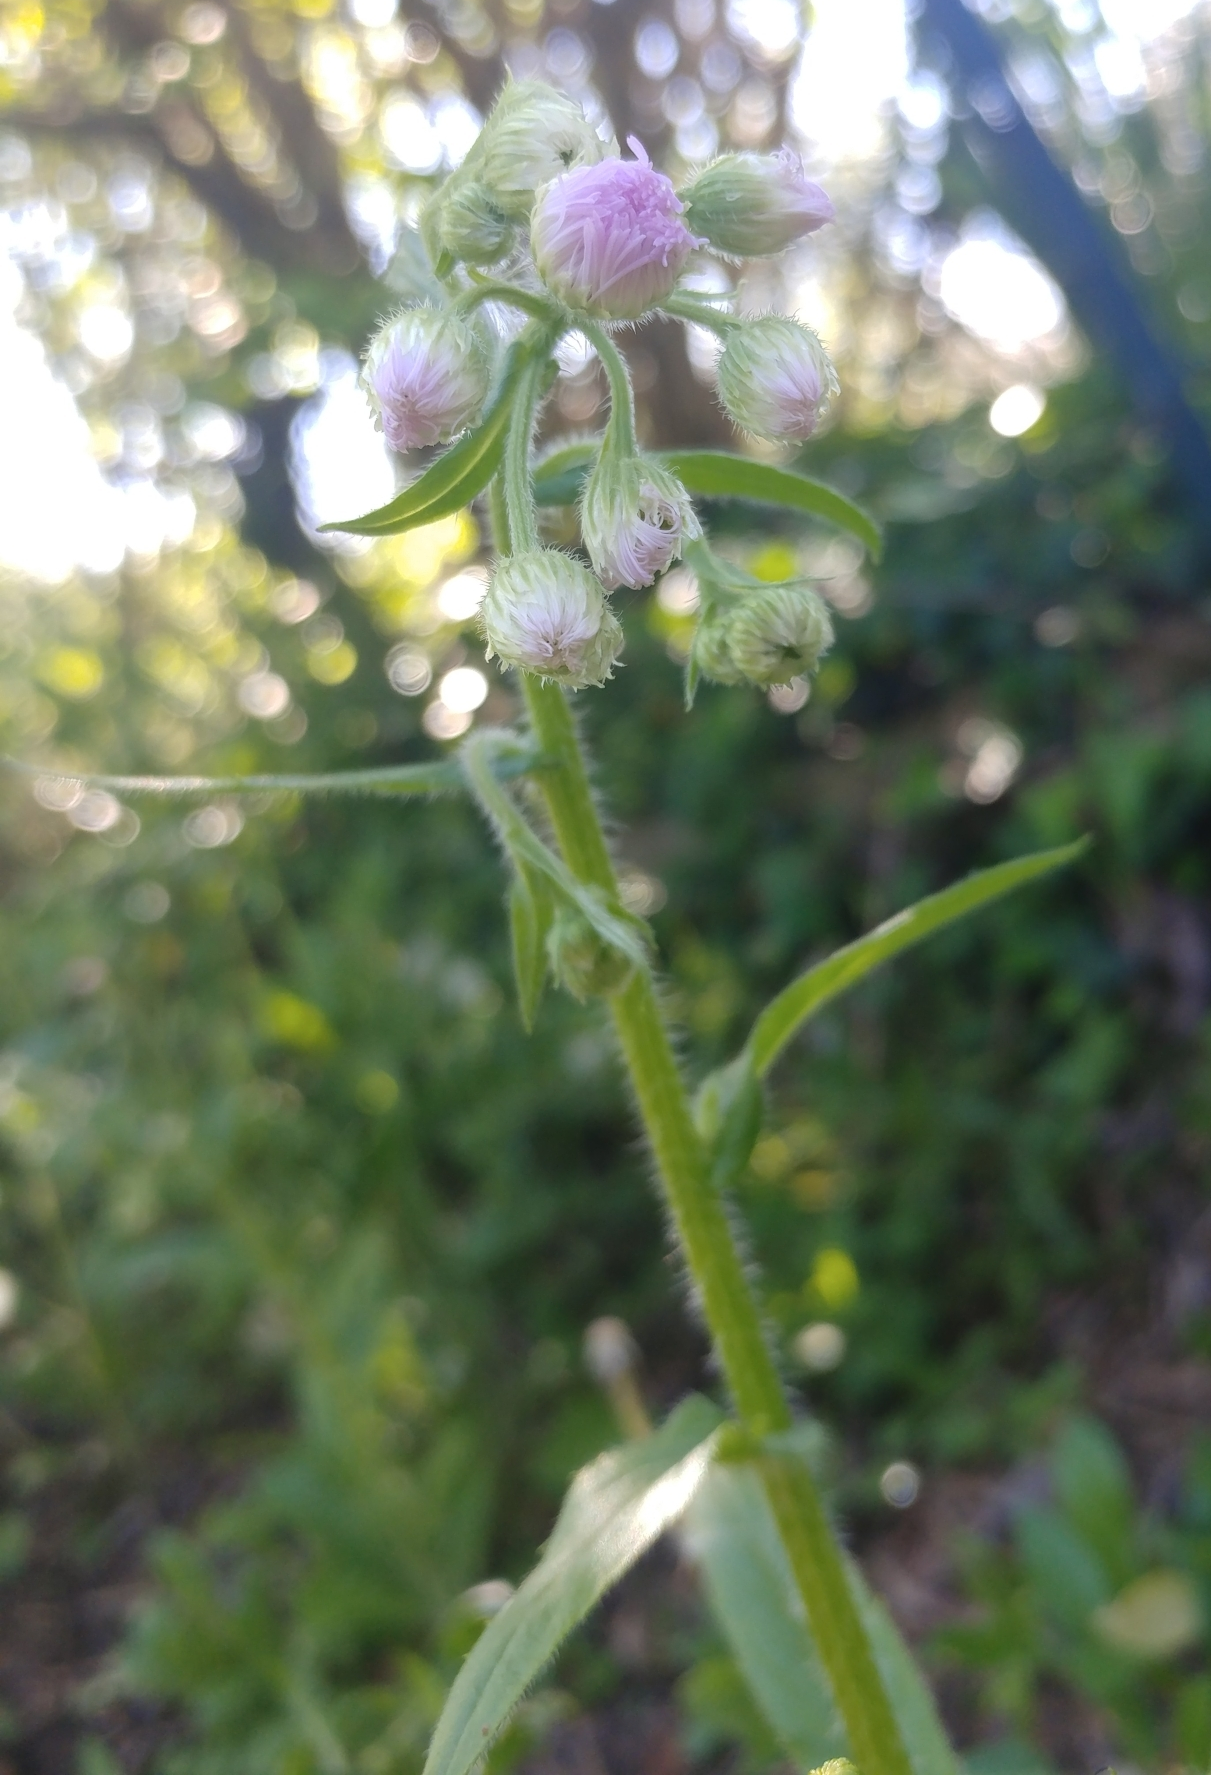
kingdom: Plantae
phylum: Tracheophyta
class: Magnoliopsida
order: Asterales
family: Asteraceae
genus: Erigeron
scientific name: Erigeron philadelphicus
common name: Robin's-plantain
